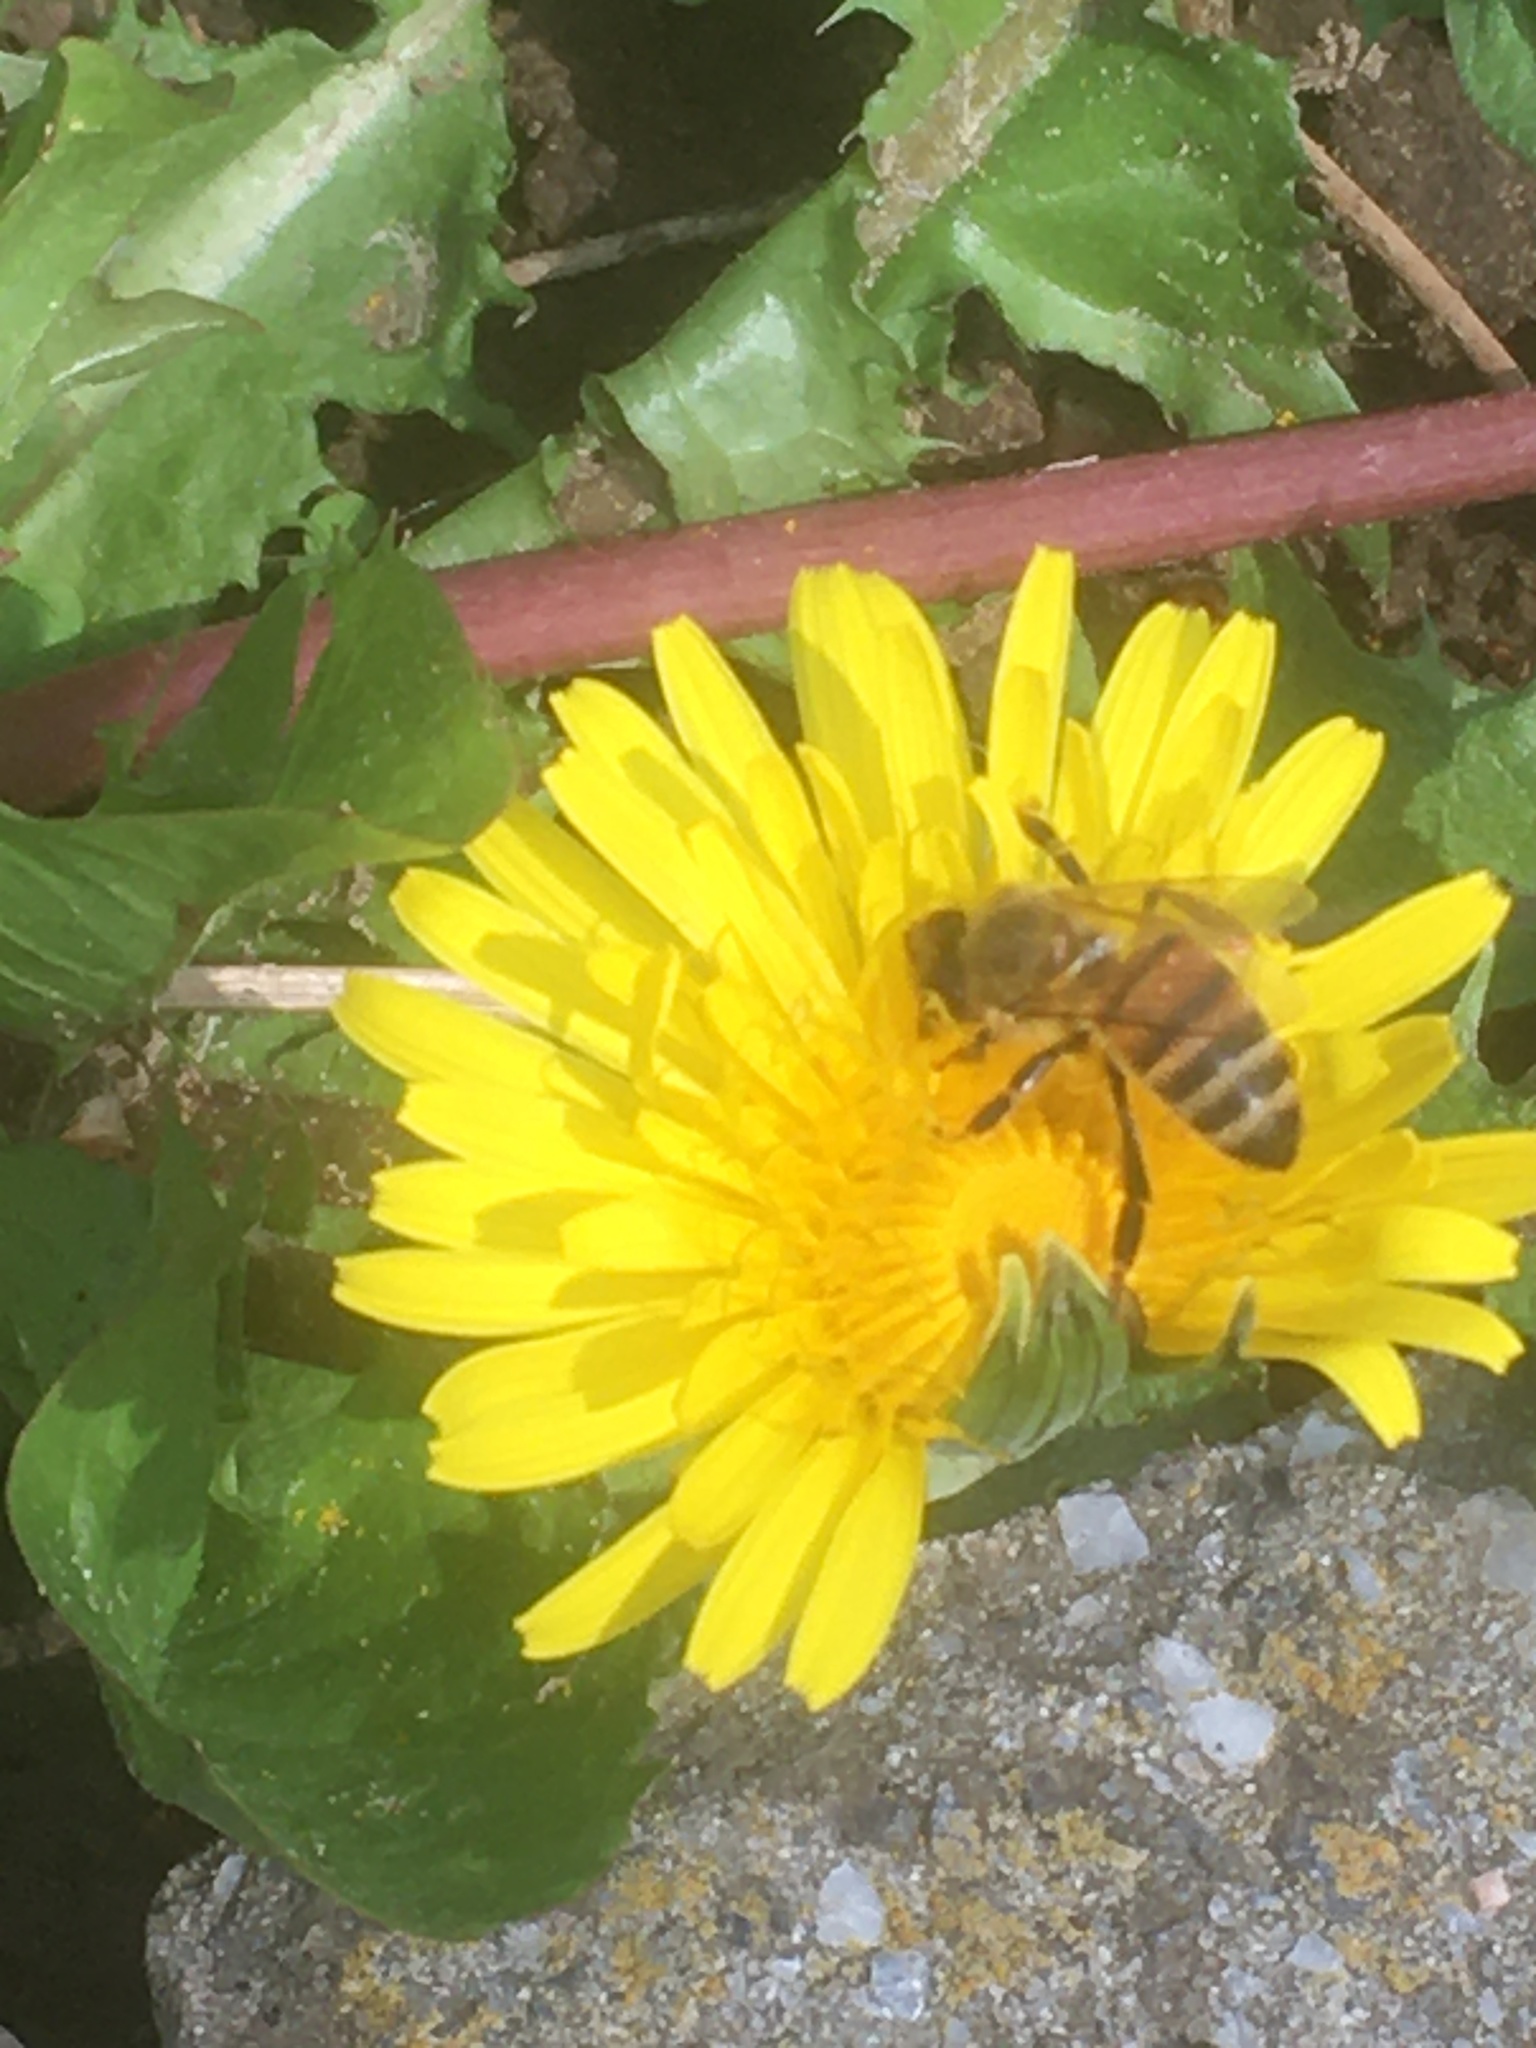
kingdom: Animalia
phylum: Arthropoda
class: Insecta
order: Hymenoptera
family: Apidae
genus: Apis
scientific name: Apis mellifera
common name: Honey bee
